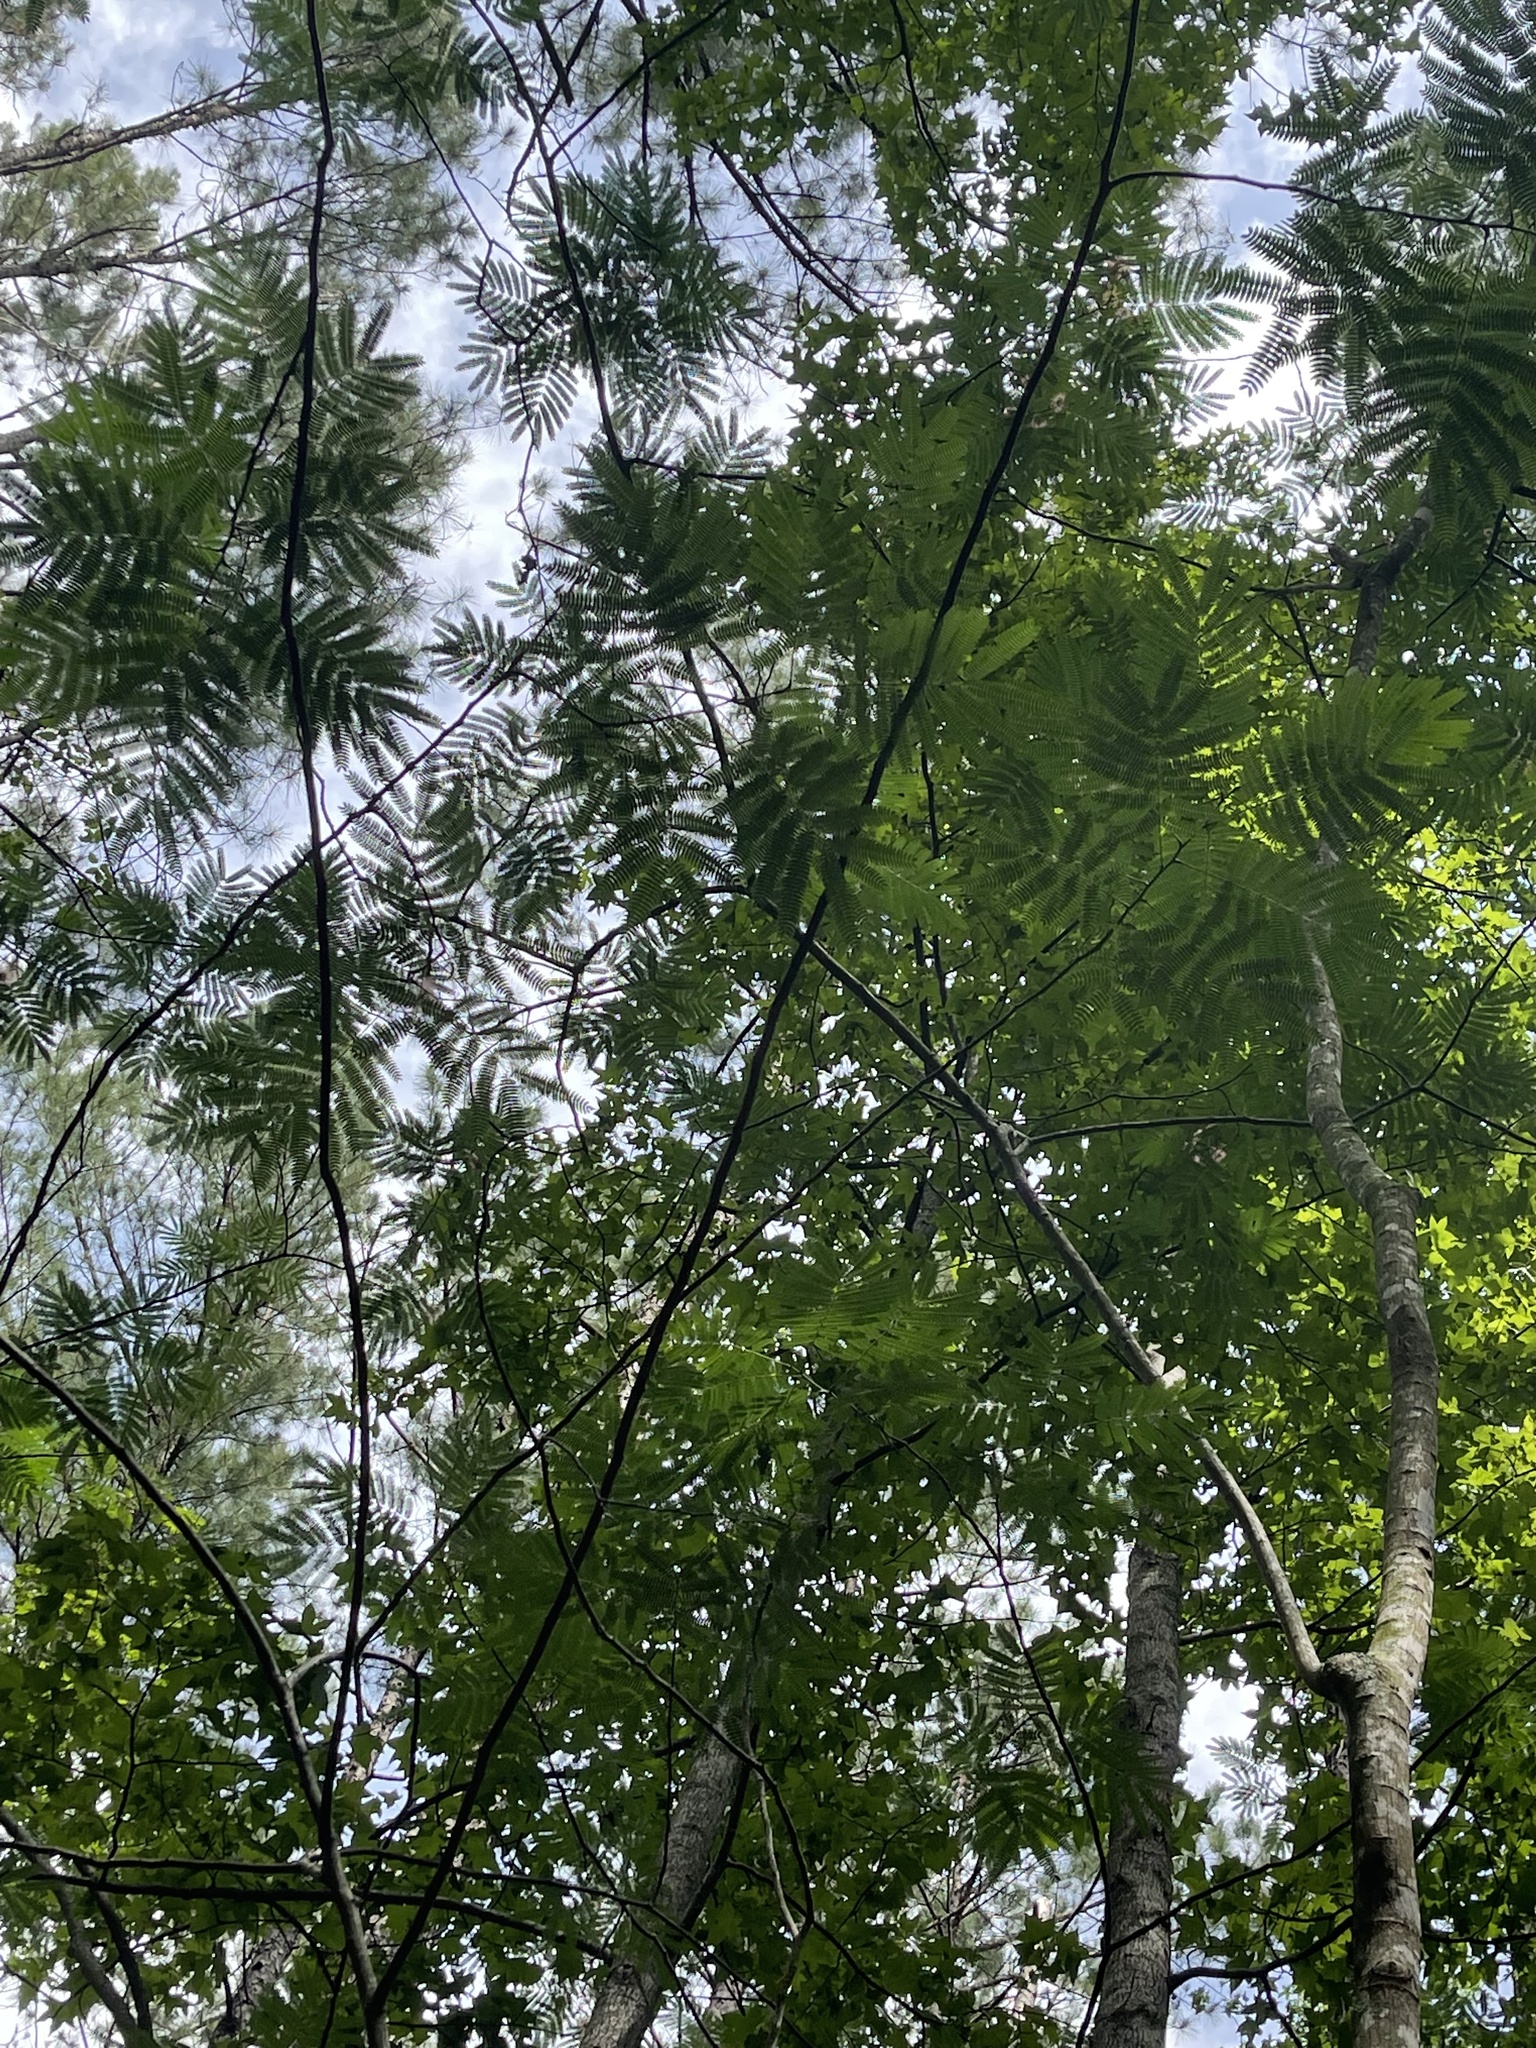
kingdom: Plantae
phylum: Tracheophyta
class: Magnoliopsida
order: Fabales
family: Fabaceae
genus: Albizia
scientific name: Albizia julibrissin
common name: Silktree
